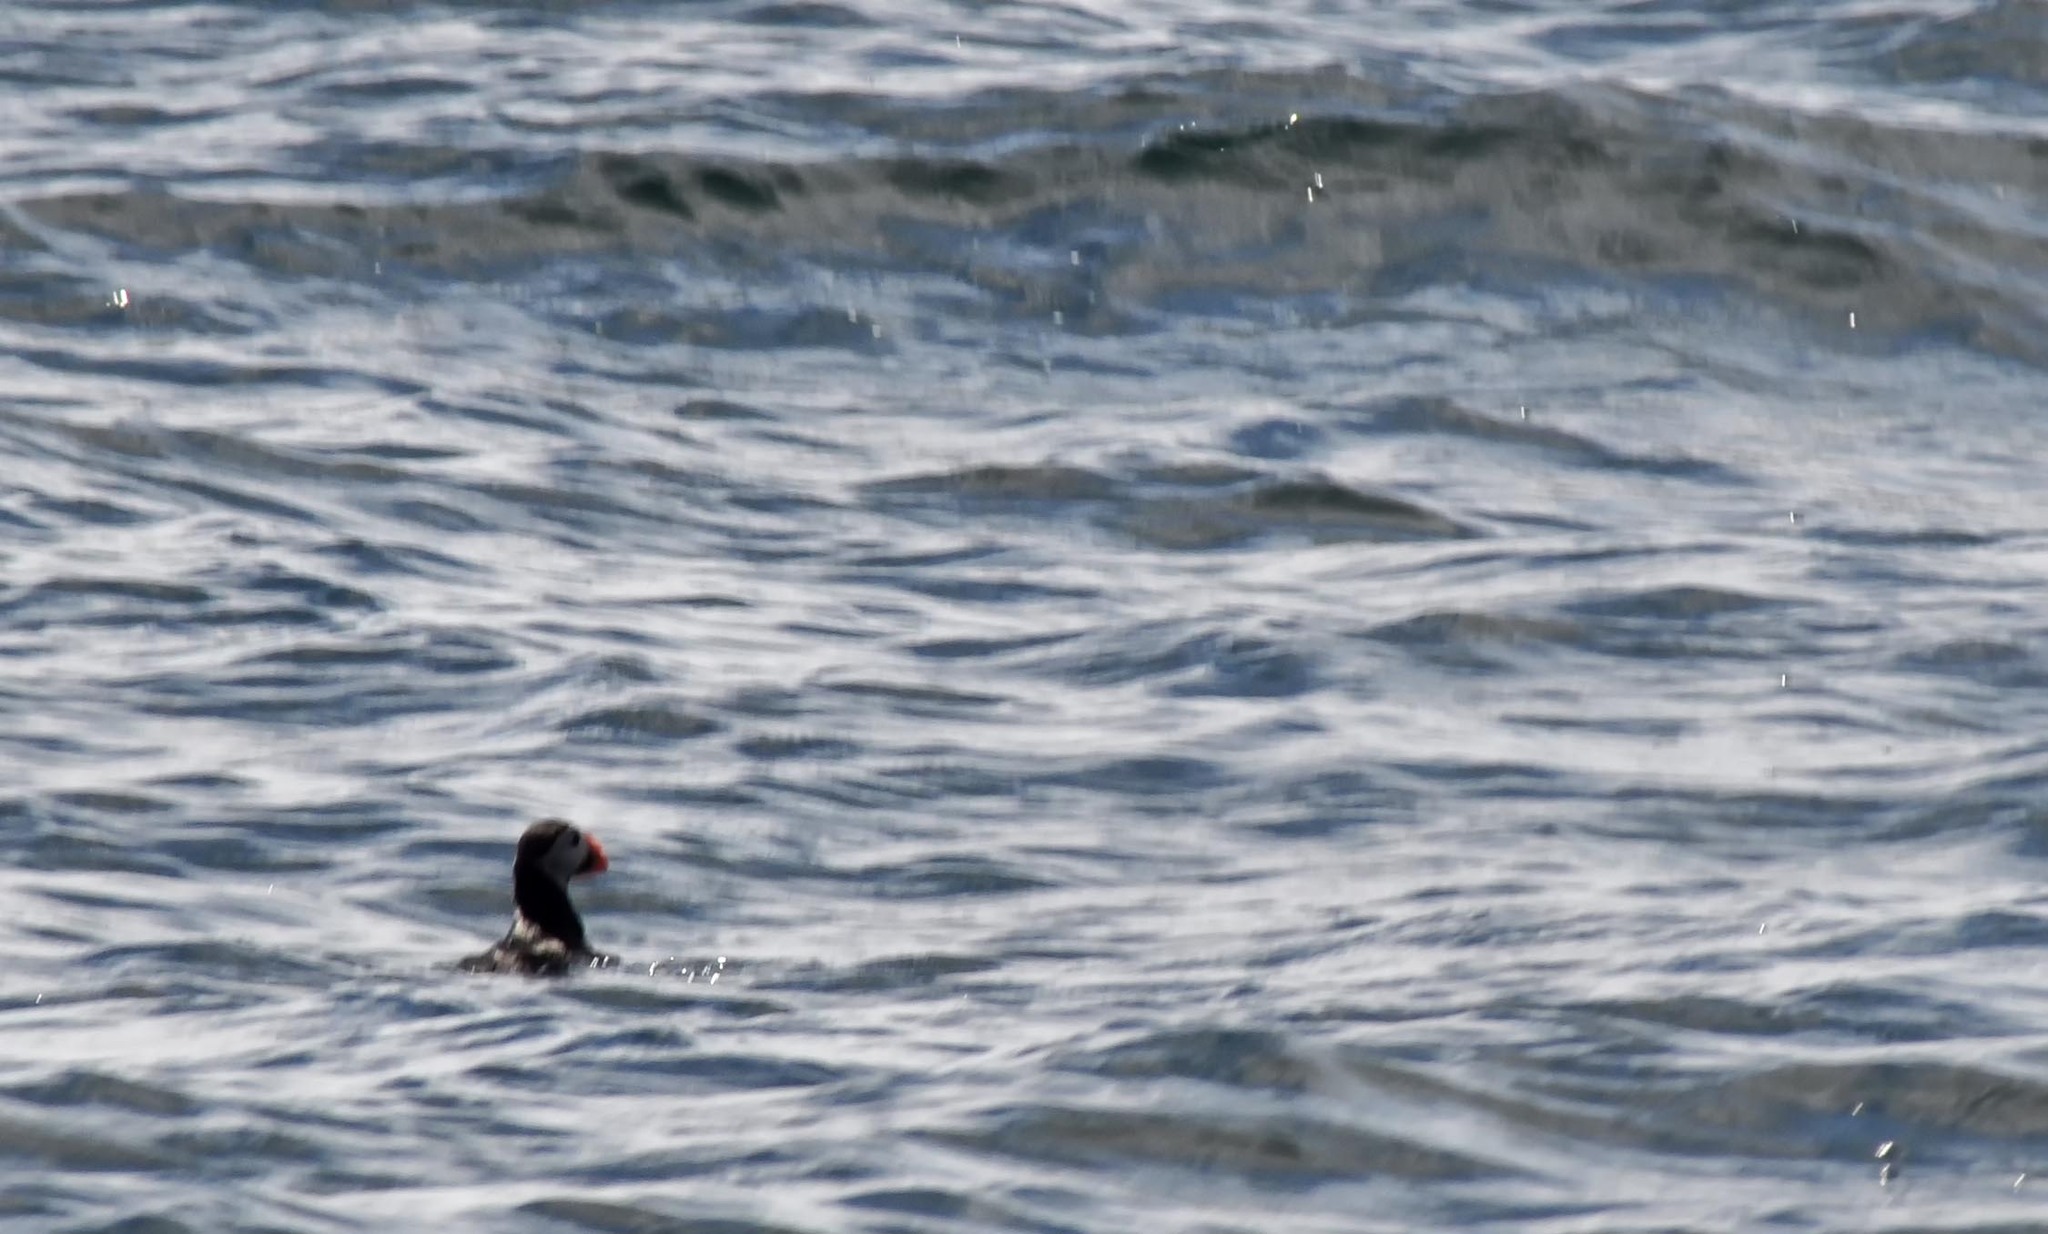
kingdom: Animalia
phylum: Chordata
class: Aves
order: Charadriiformes
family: Alcidae
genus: Fratercula
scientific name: Fratercula arctica
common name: Atlantic puffin
